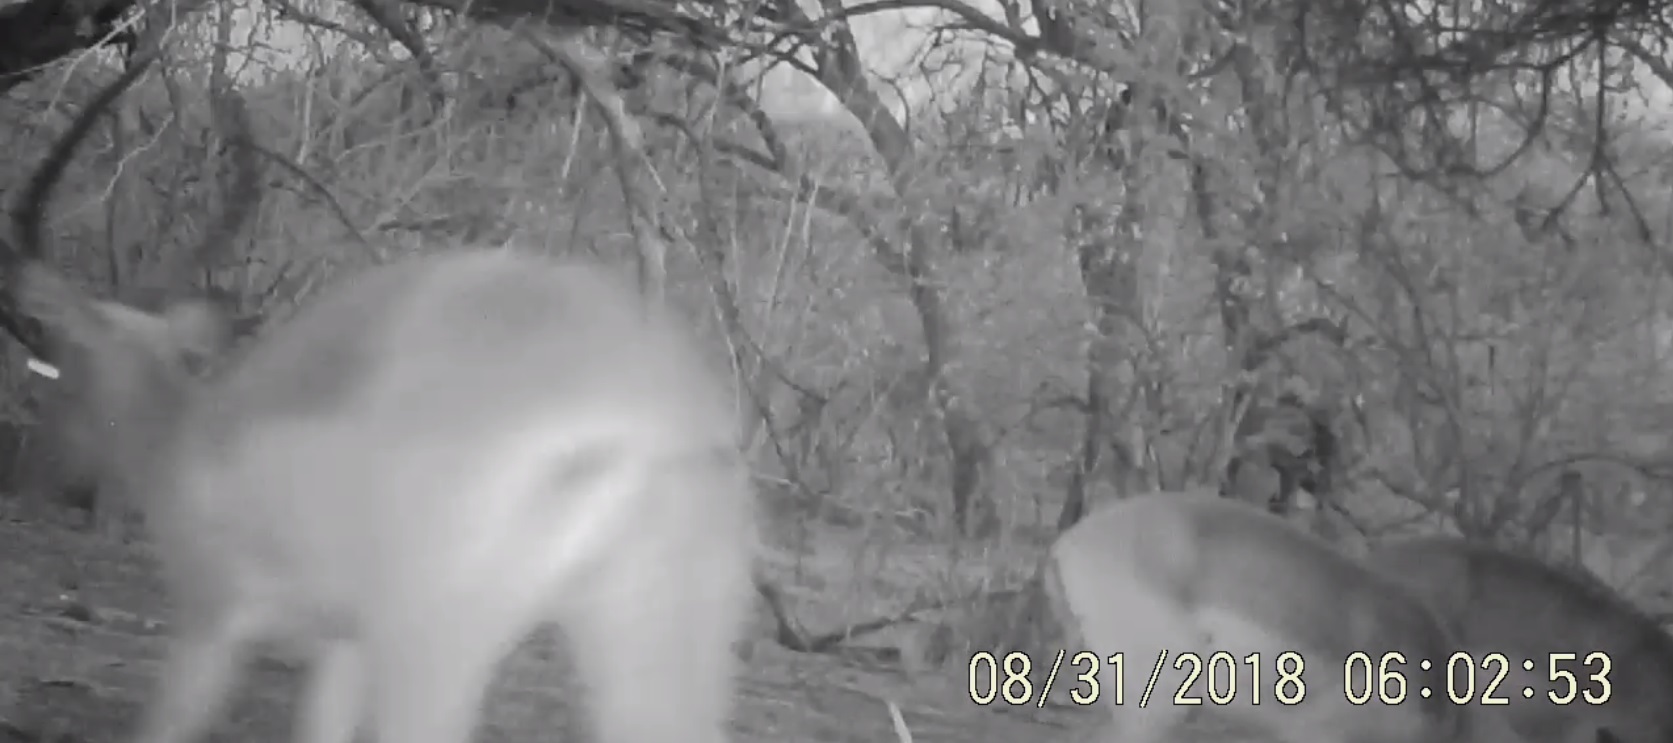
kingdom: Animalia
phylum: Chordata
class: Mammalia
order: Artiodactyla
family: Bovidae
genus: Aepyceros
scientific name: Aepyceros melampus
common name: Impala
